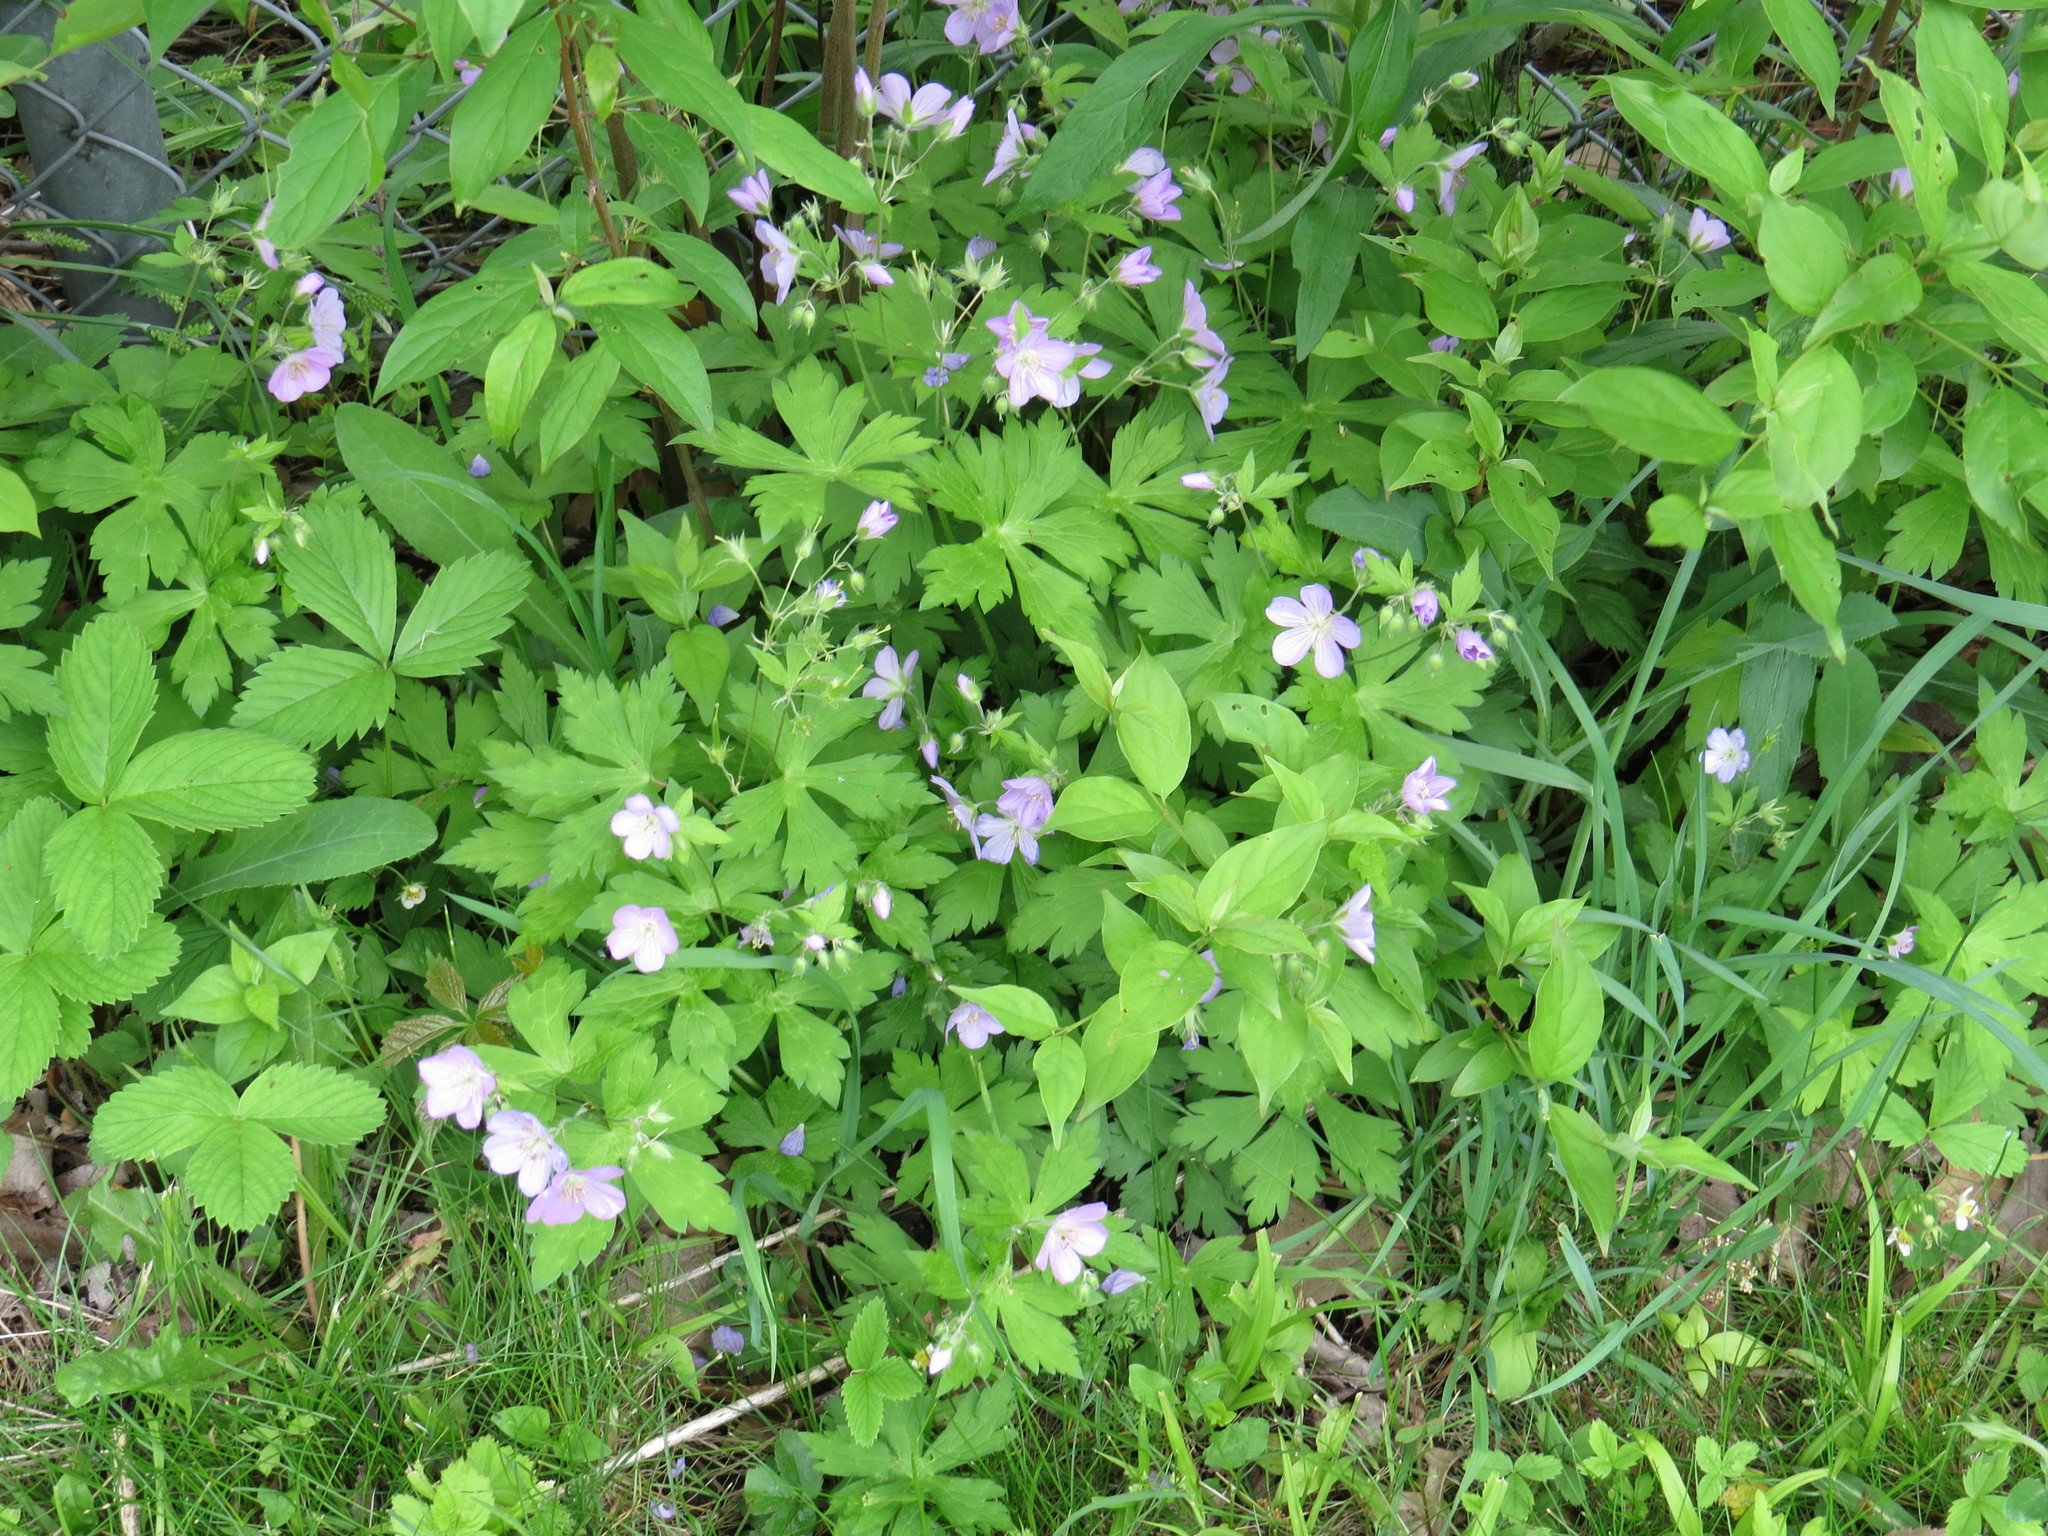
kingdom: Plantae
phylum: Tracheophyta
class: Magnoliopsida
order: Geraniales
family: Geraniaceae
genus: Geranium
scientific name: Geranium maculatum
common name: Spotted geranium
